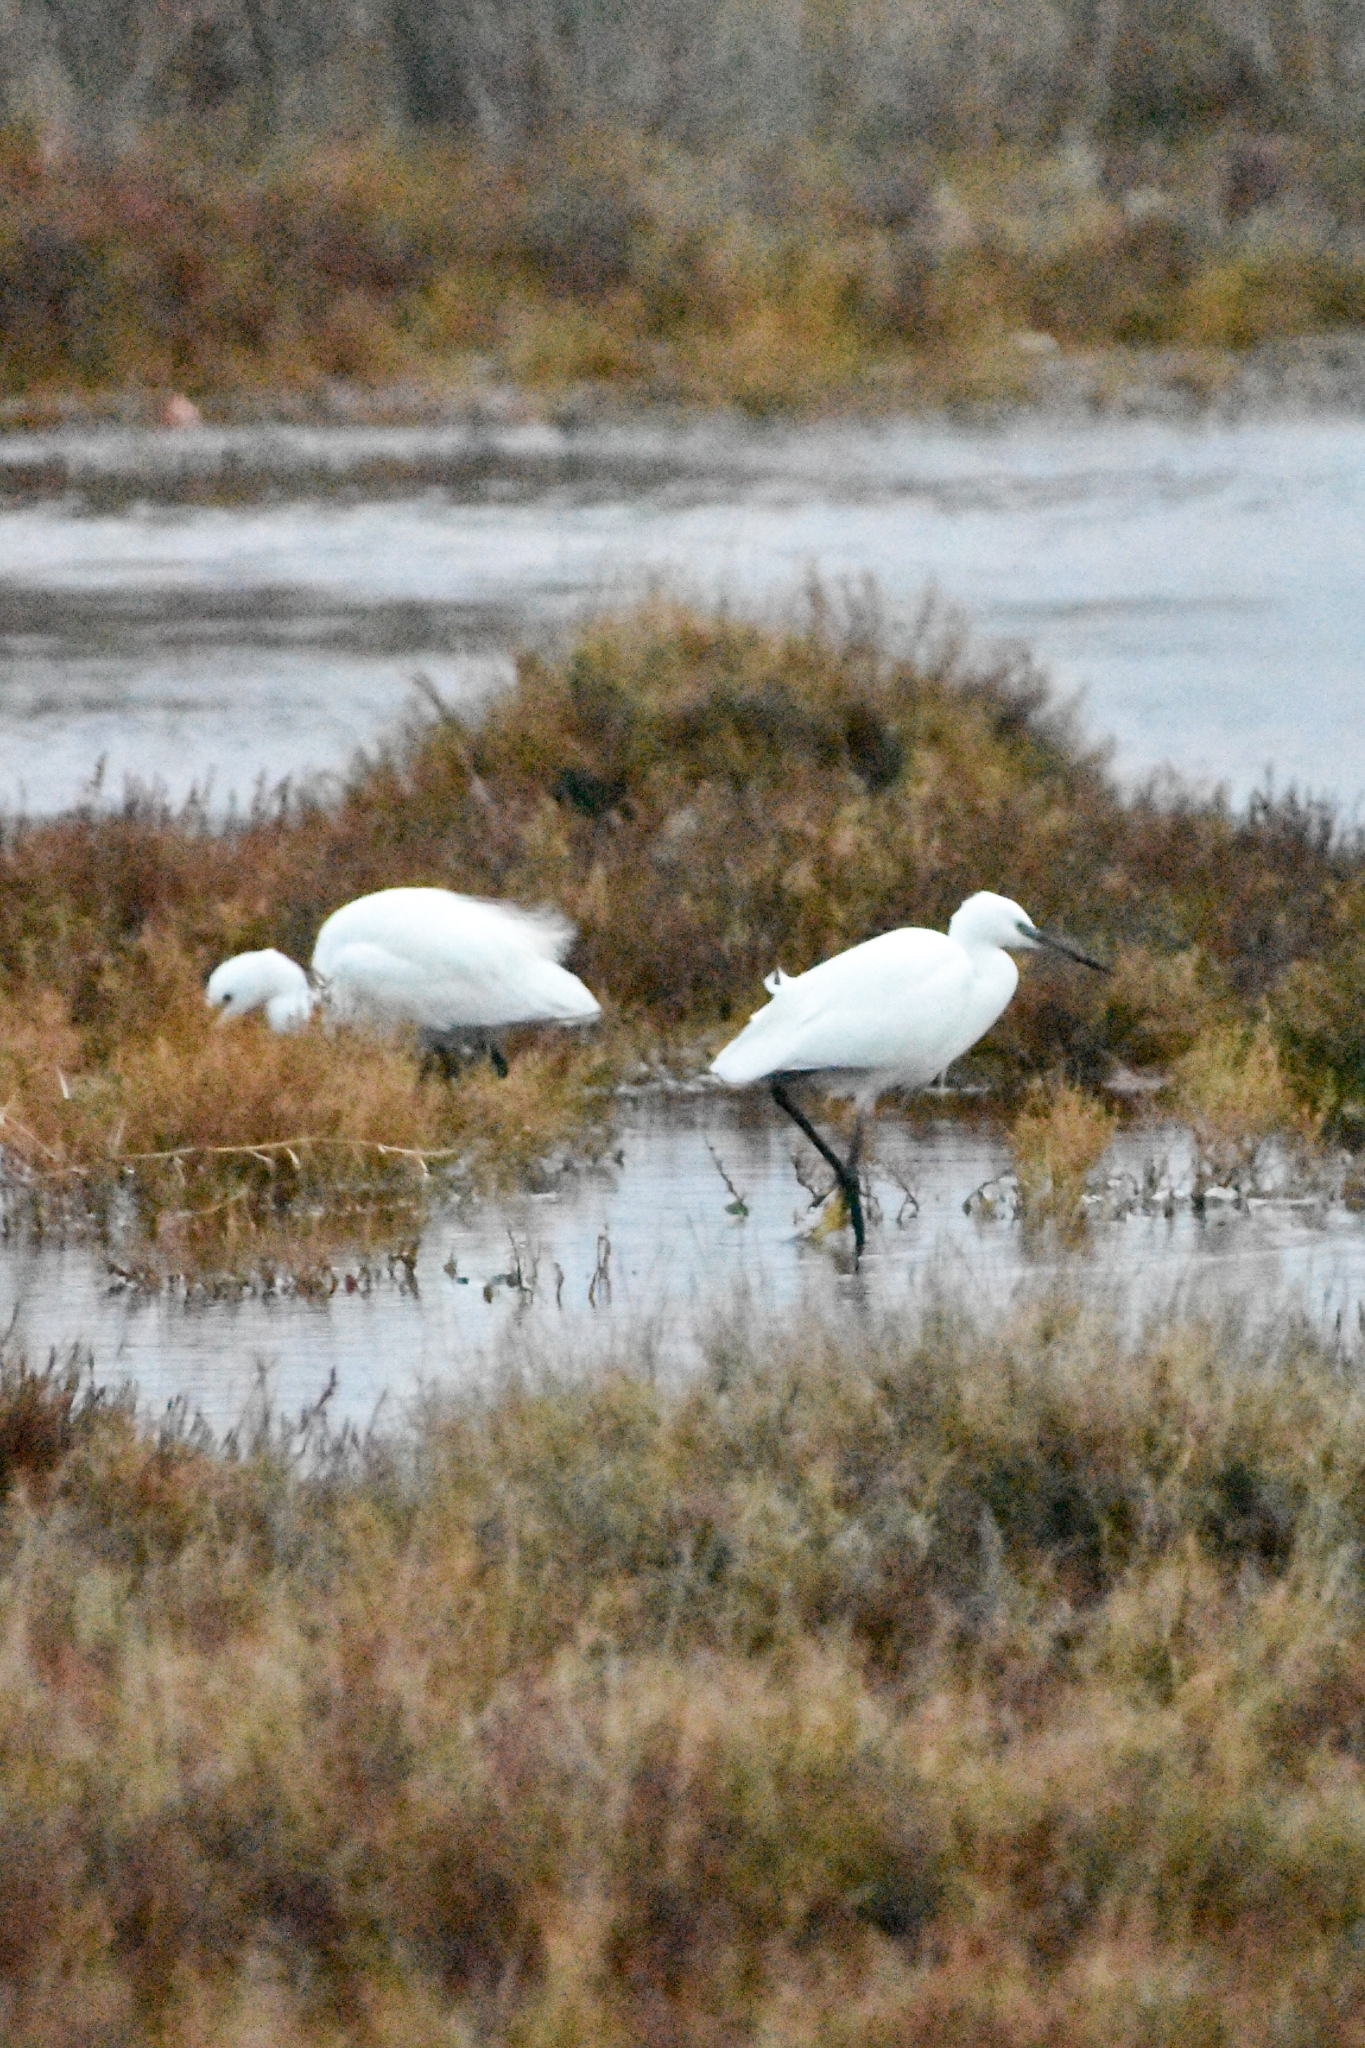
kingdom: Animalia
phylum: Chordata
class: Aves
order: Pelecaniformes
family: Ardeidae
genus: Egretta
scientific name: Egretta garzetta
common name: Little egret
